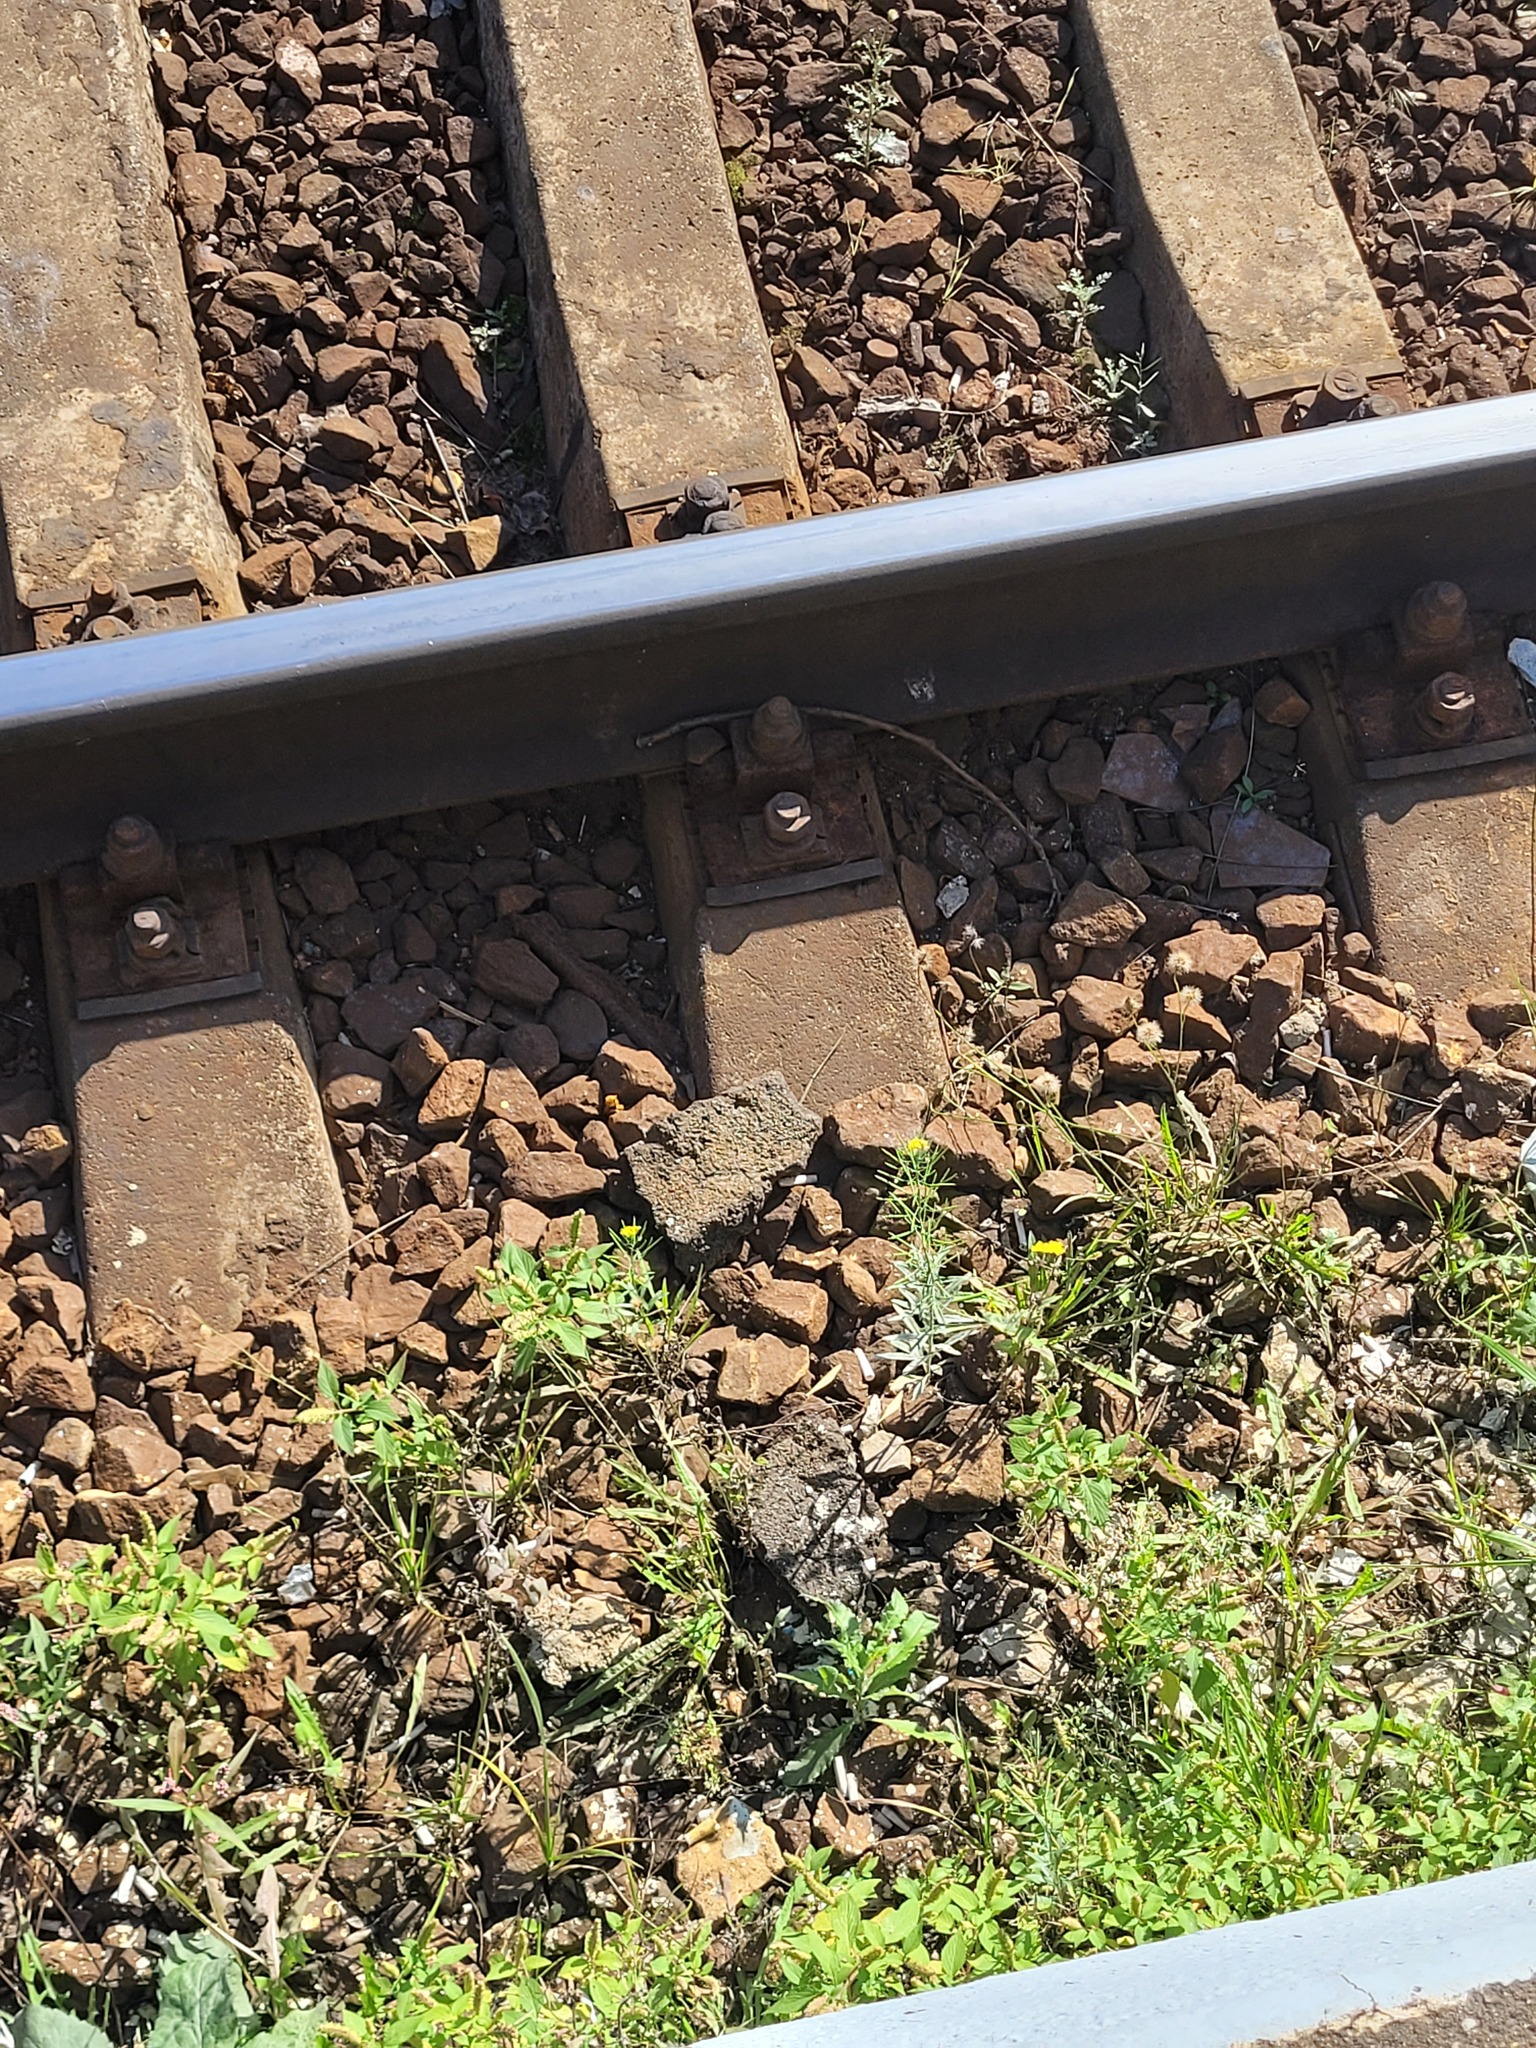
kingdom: Plantae
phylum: Tracheophyta
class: Magnoliopsida
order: Brassicales
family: Brassicaceae
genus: Erysimum
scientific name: Erysimum cheiranthoides
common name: Treacle mustard
